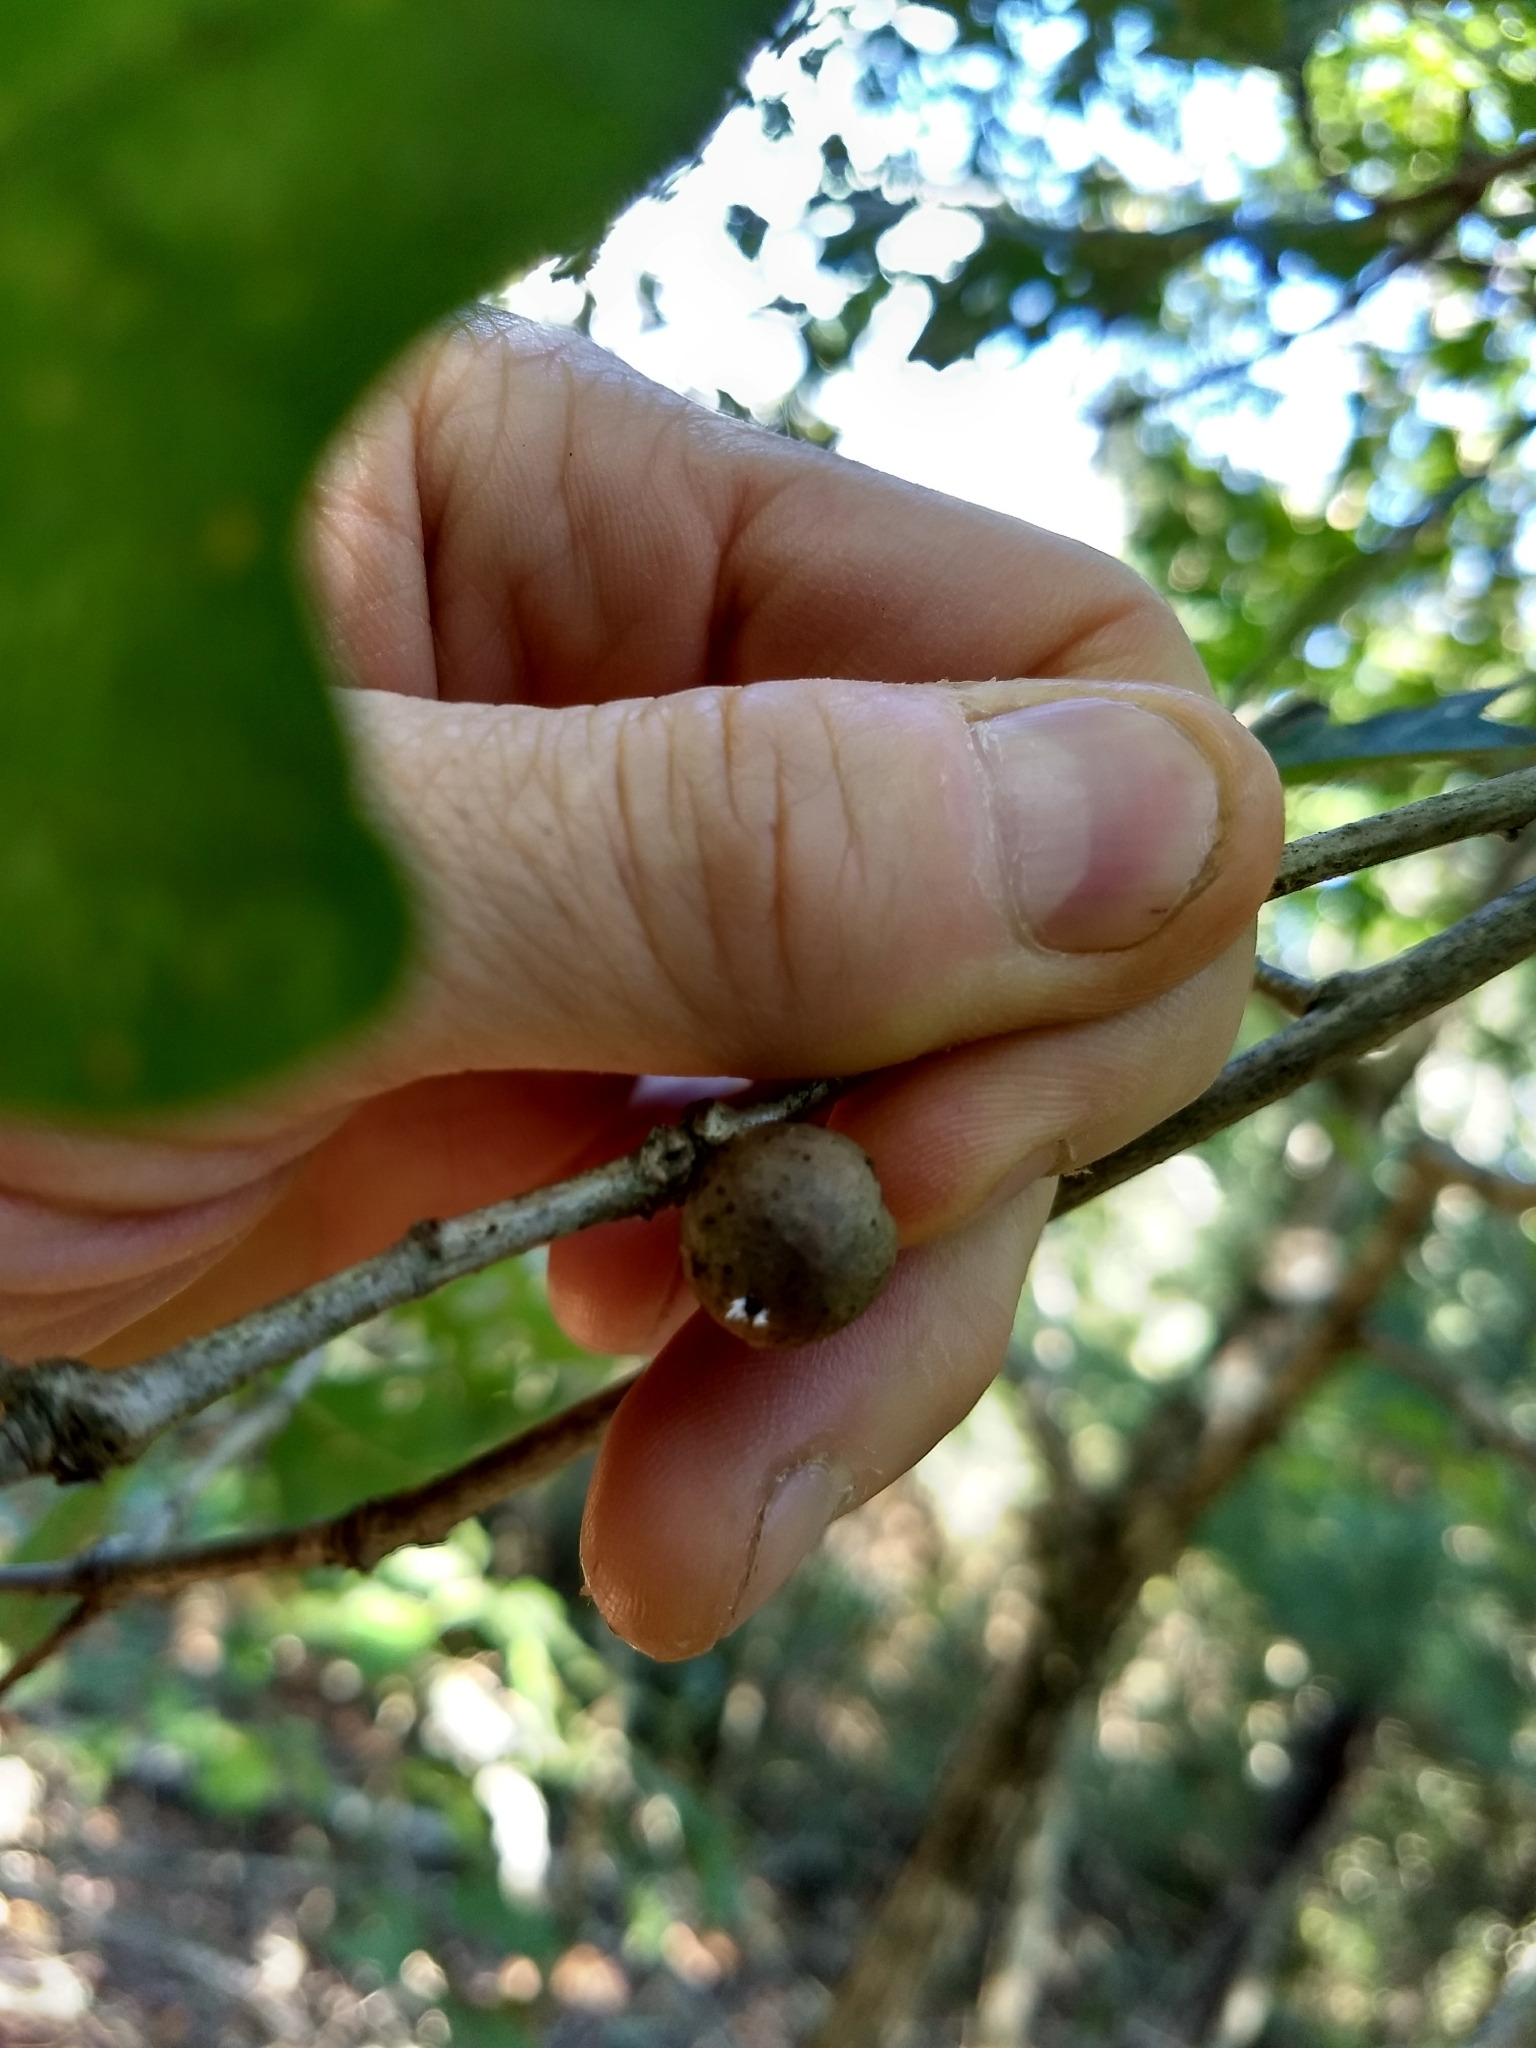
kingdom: Plantae
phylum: Tracheophyta
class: Magnoliopsida
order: Fagales
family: Fagaceae
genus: Quercus
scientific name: Quercus alba
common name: White oak
